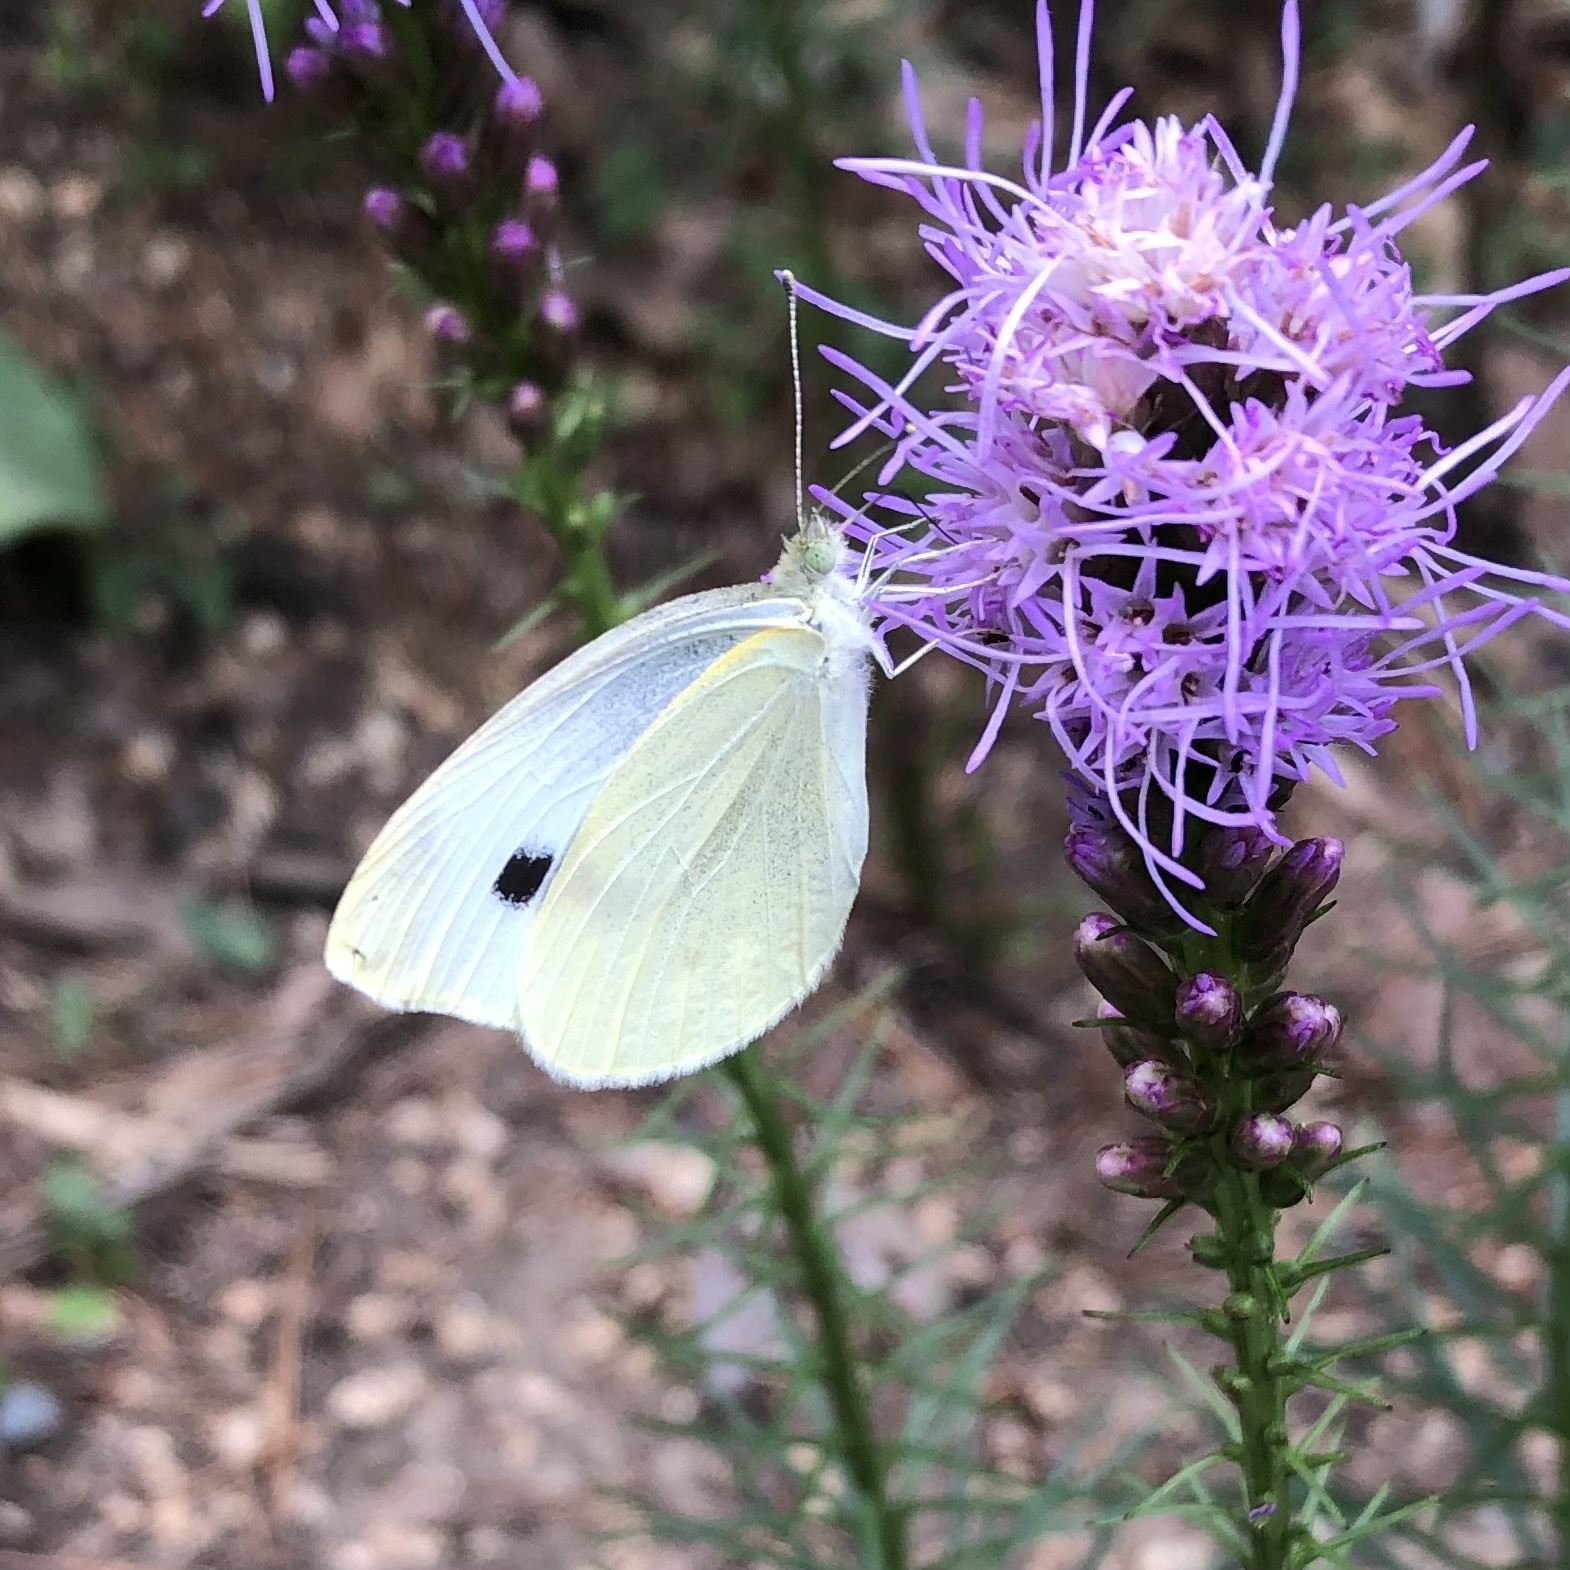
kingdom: Animalia
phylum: Arthropoda
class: Insecta
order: Lepidoptera
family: Pieridae
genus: Pieris
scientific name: Pieris rapae
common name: Small white
